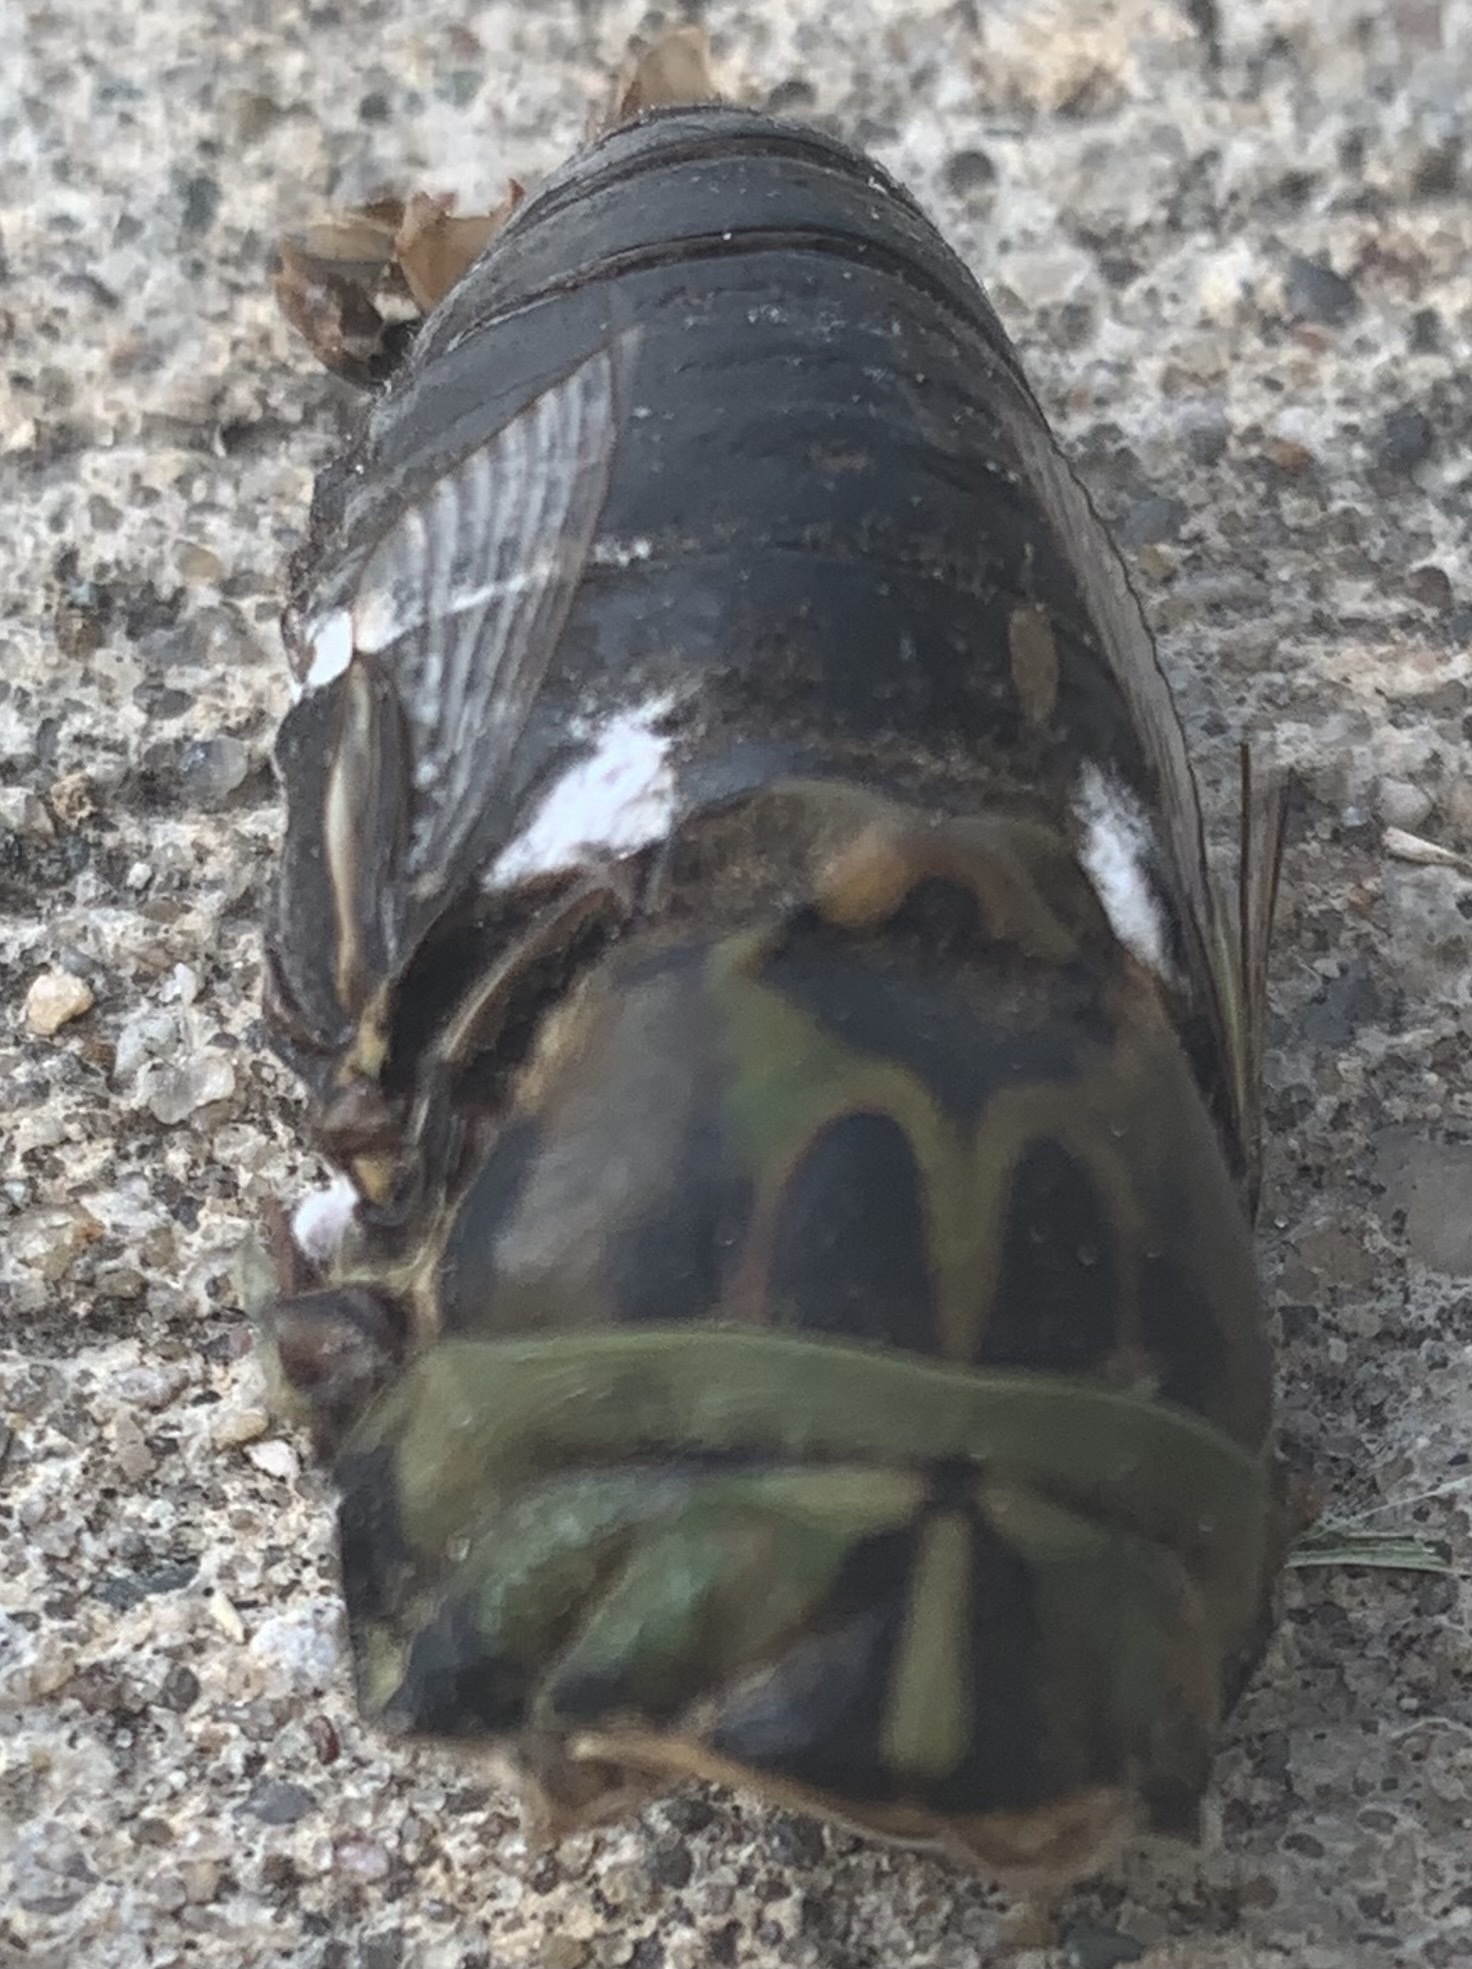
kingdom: Animalia
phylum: Arthropoda
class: Insecta
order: Hemiptera
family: Cicadidae
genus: Neotibicen
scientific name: Neotibicen pruinosus
